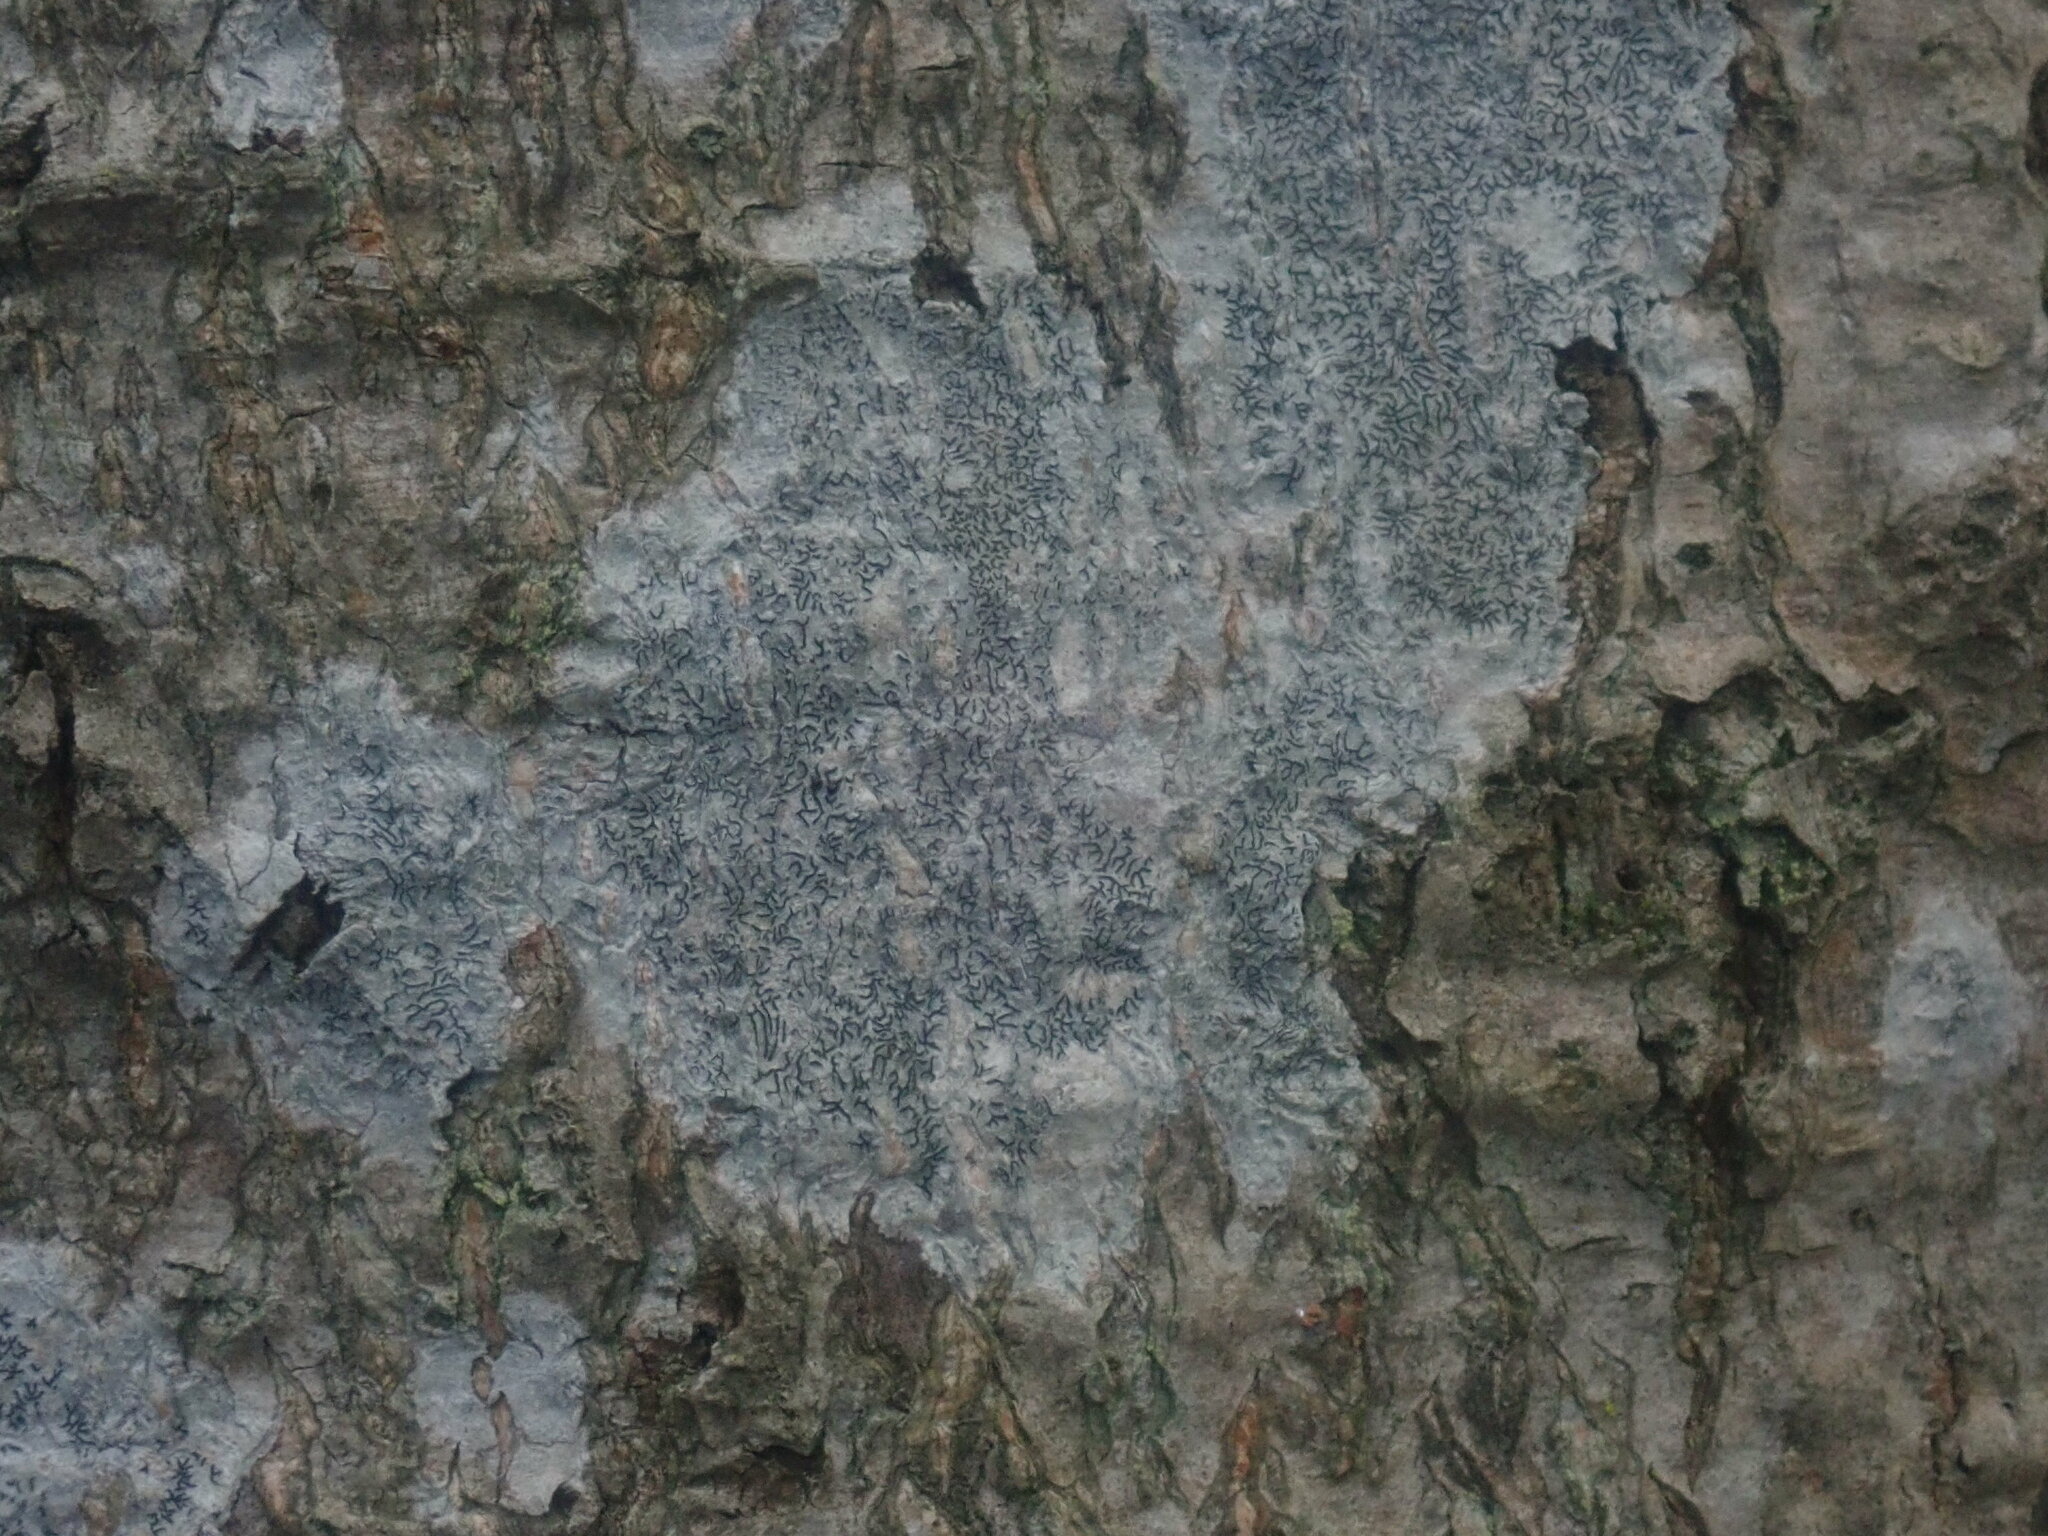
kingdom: Fungi
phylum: Ascomycota
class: Lecanoromycetes
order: Ostropales
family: Graphidaceae
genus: Graphis
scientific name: Graphis scripta
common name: Script lichen
